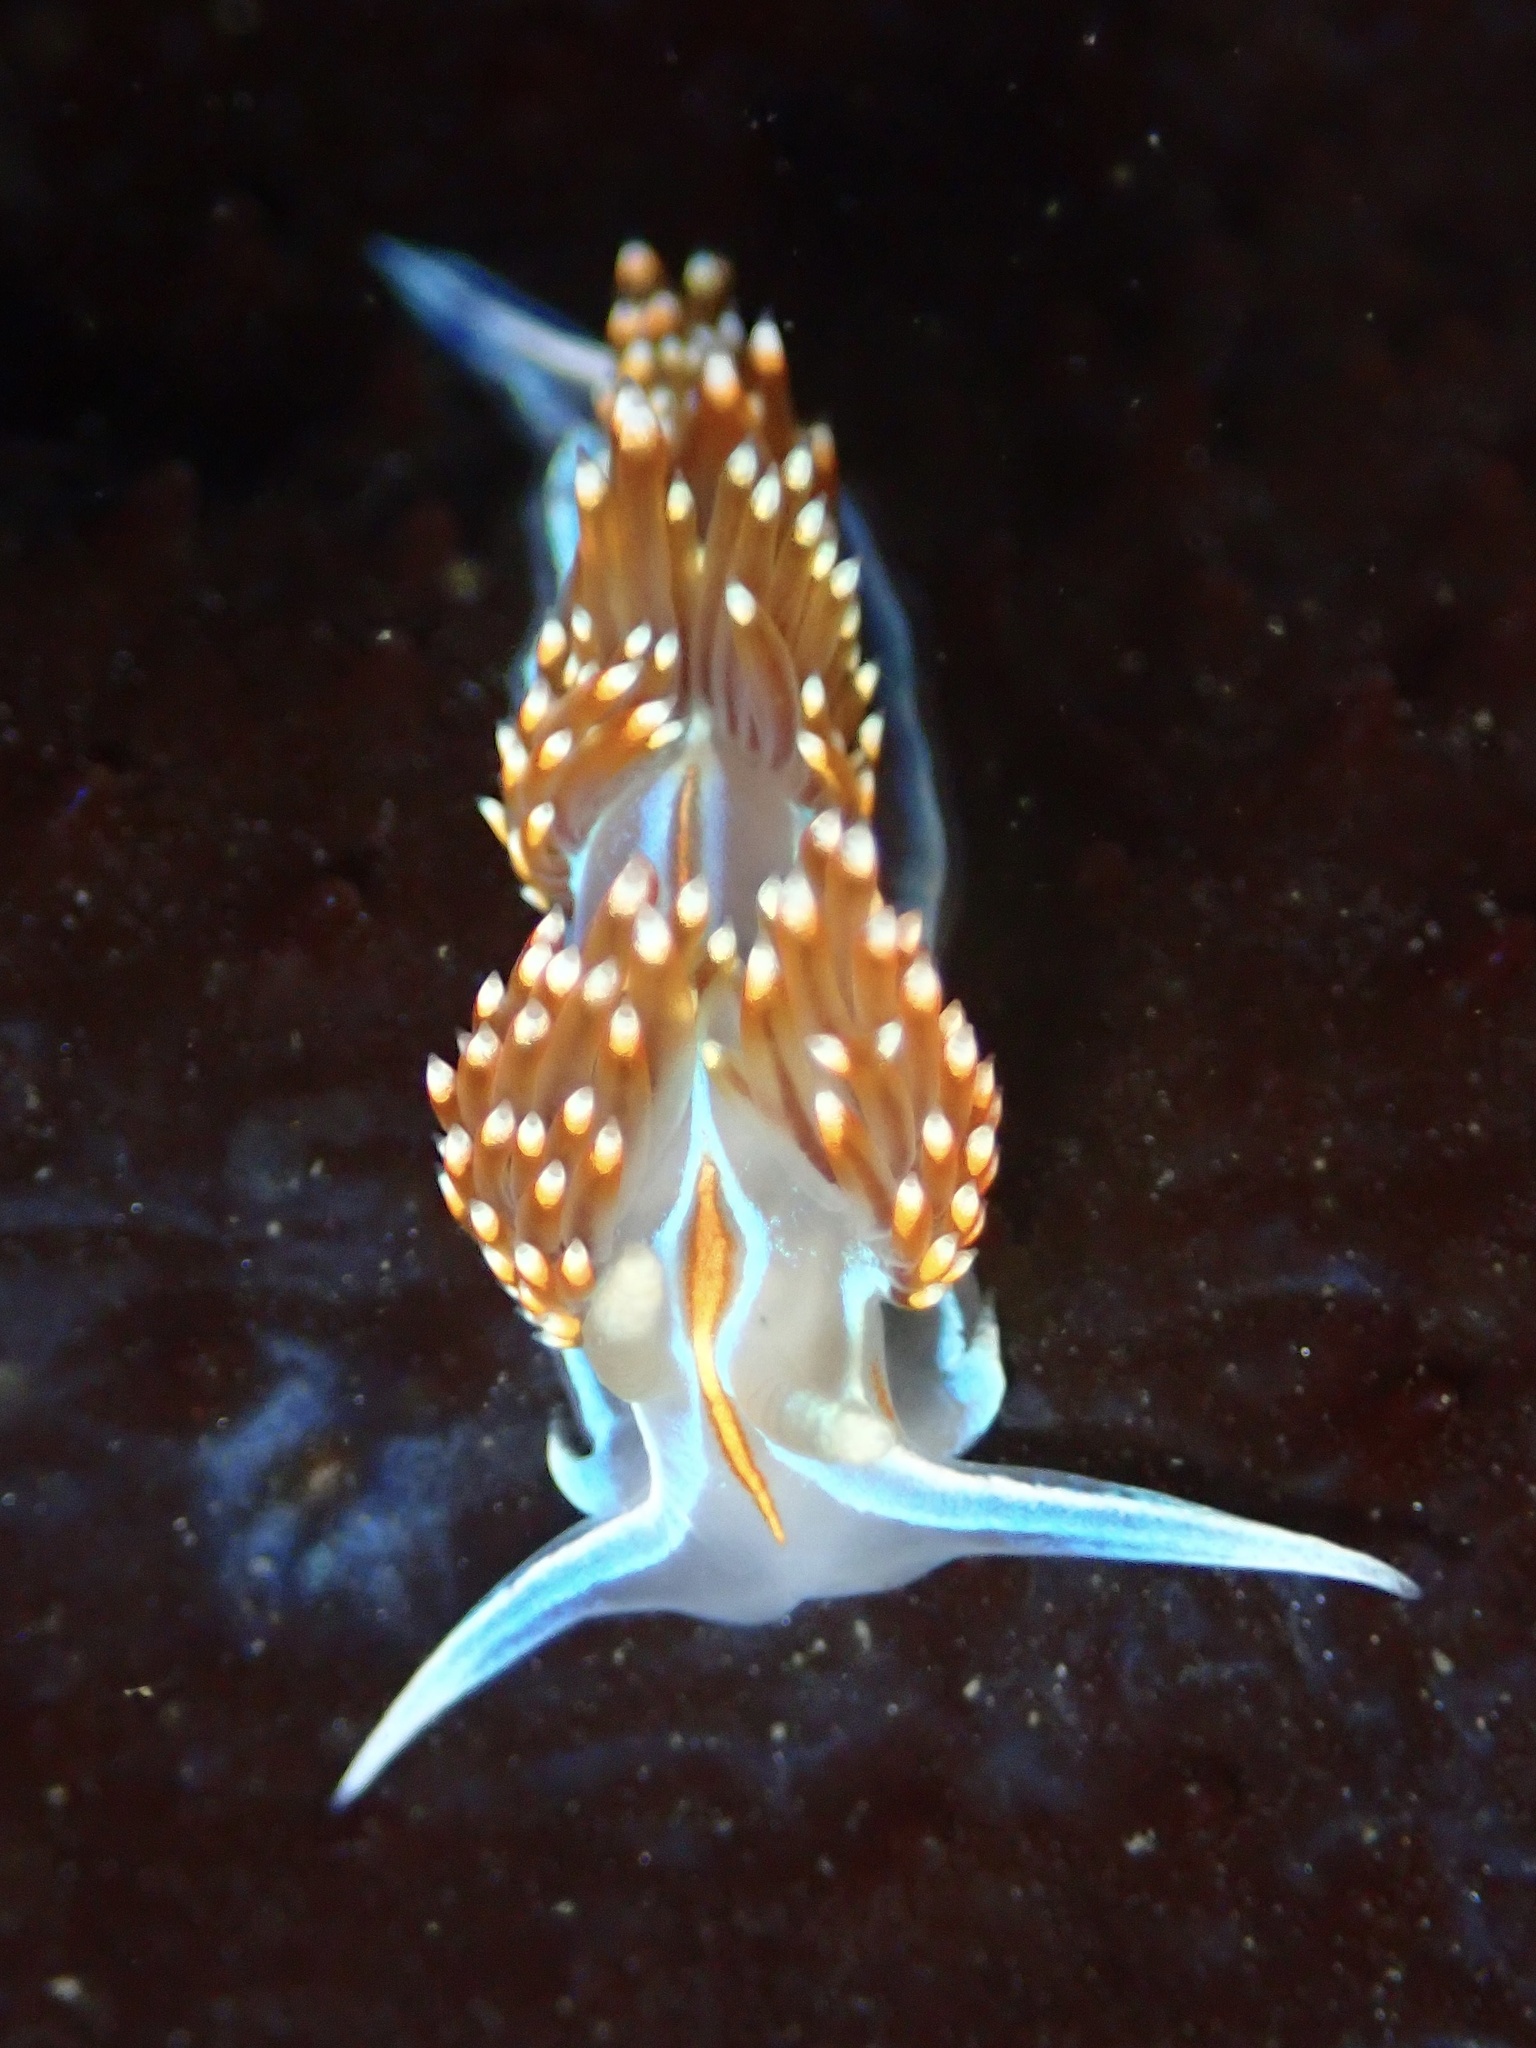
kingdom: Animalia
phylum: Mollusca
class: Gastropoda
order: Nudibranchia
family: Myrrhinidae
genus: Hermissenda
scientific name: Hermissenda opalescens
